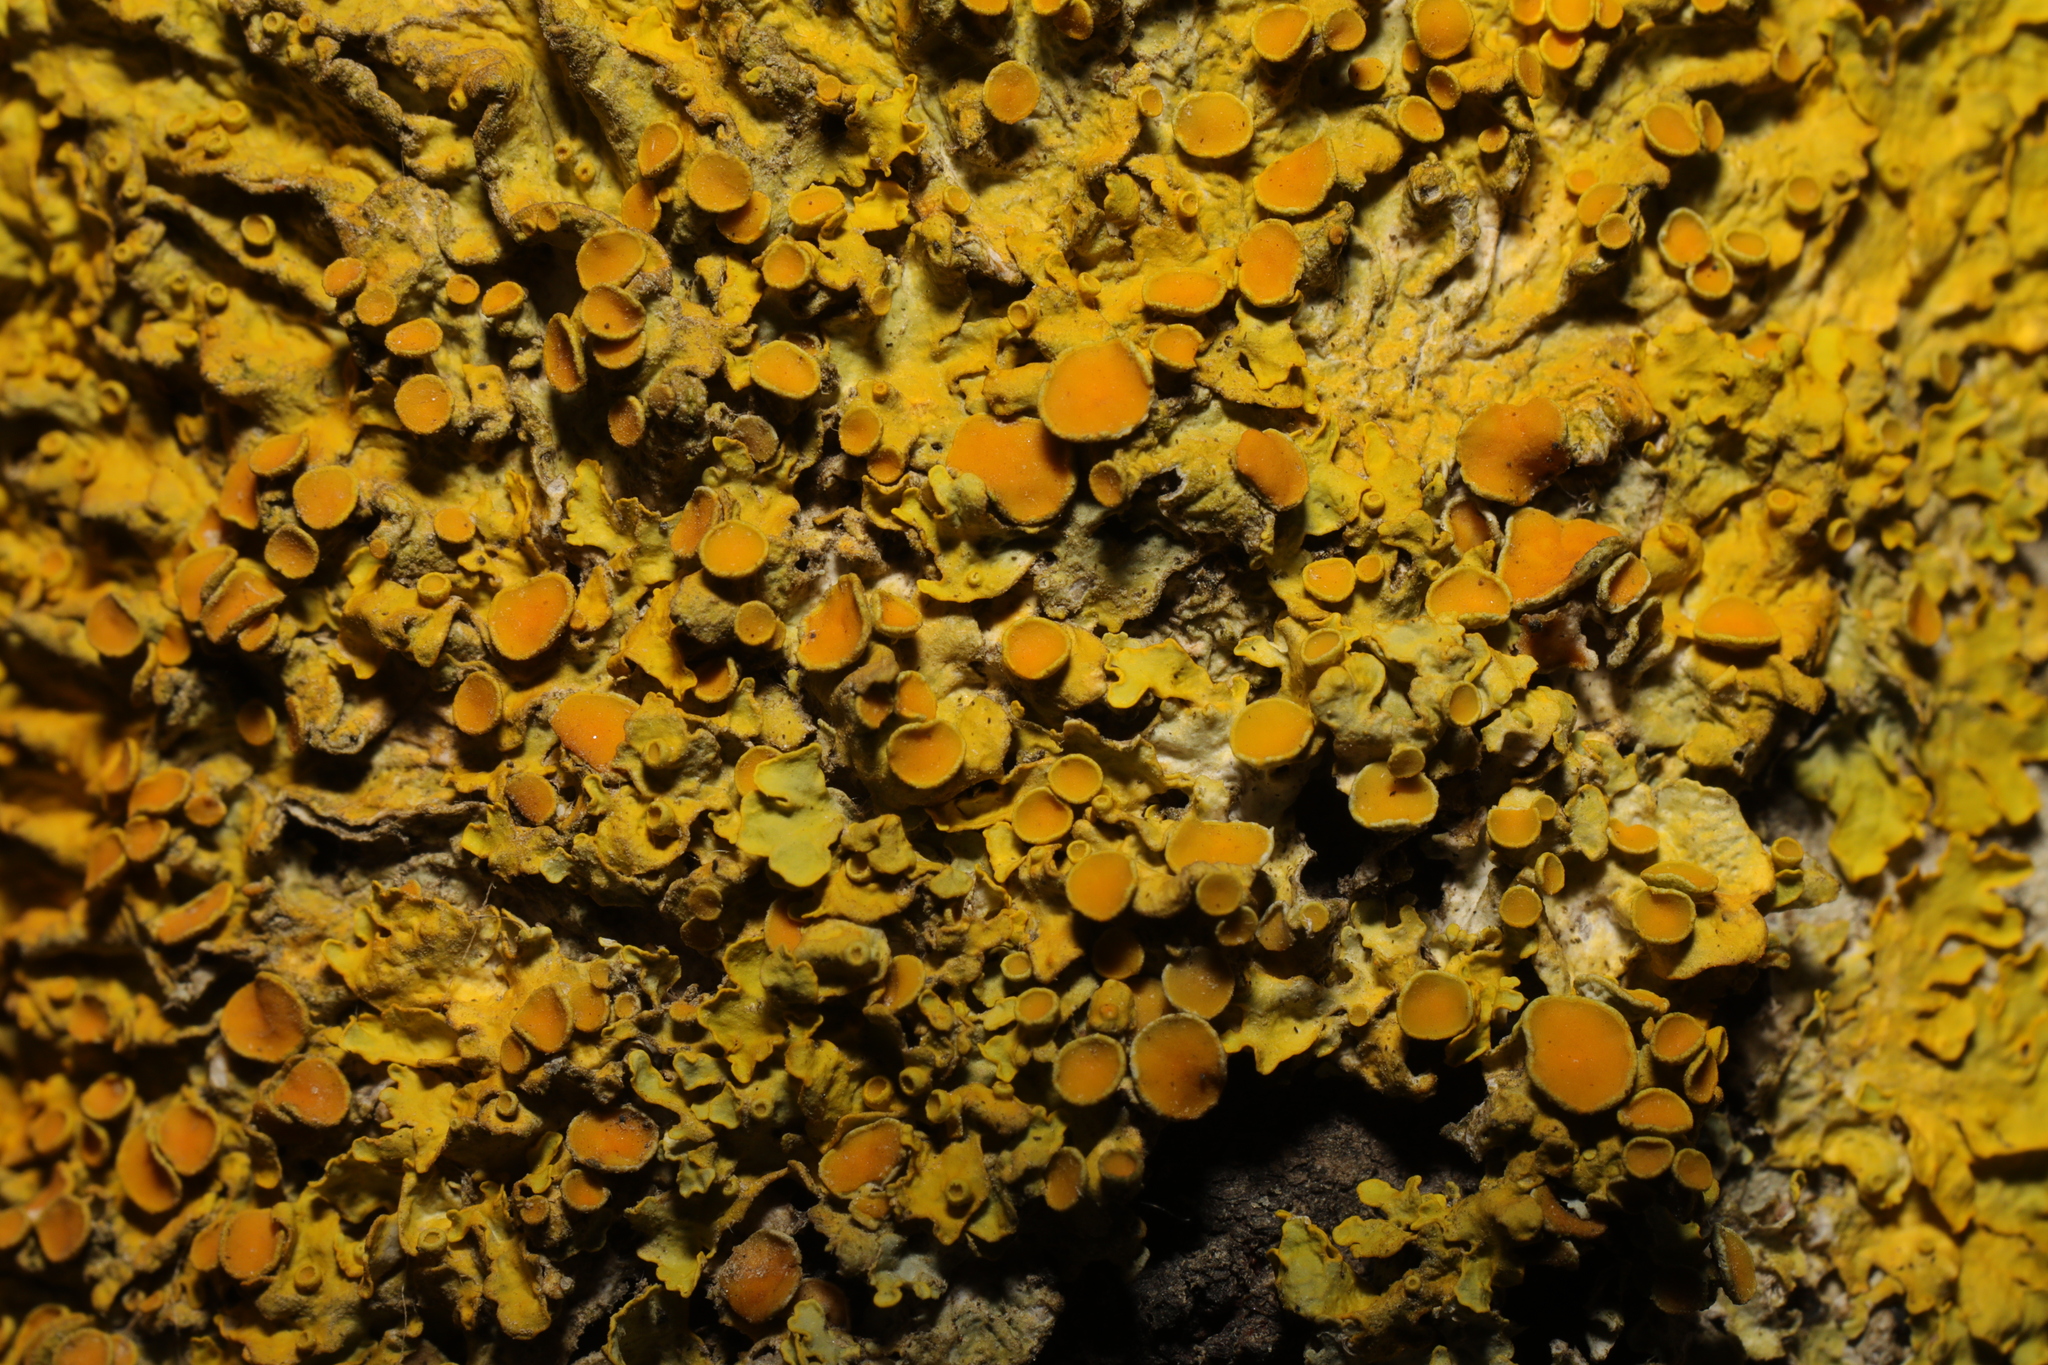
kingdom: Fungi
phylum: Ascomycota
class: Lecanoromycetes
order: Teloschistales
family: Teloschistaceae
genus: Xanthoria
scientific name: Xanthoria parietina
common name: Common orange lichen
